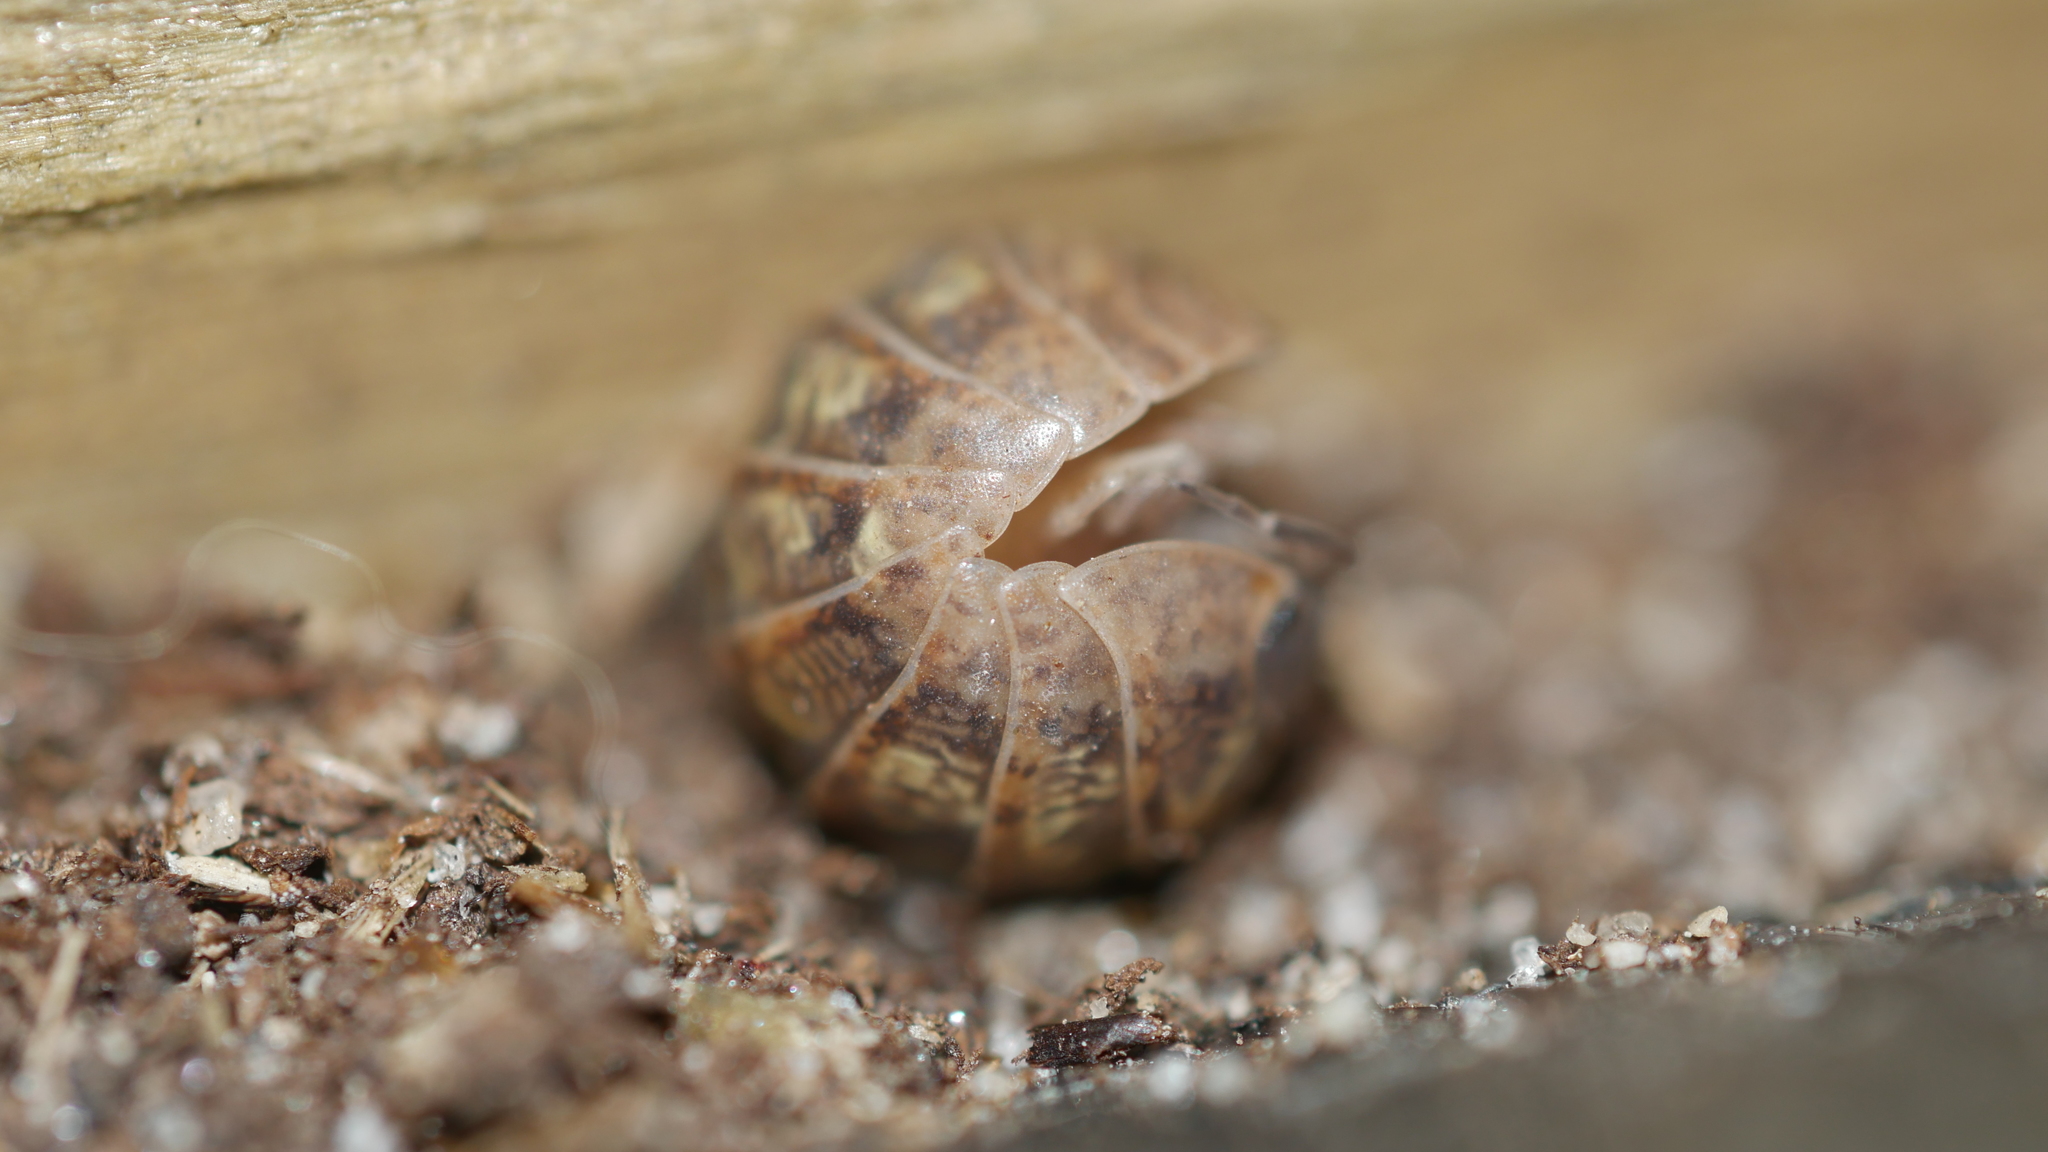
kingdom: Animalia
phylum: Arthropoda
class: Malacostraca
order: Isopoda
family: Armadillidiidae
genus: Armadillidium
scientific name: Armadillidium vulgare
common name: Common pill woodlouse
